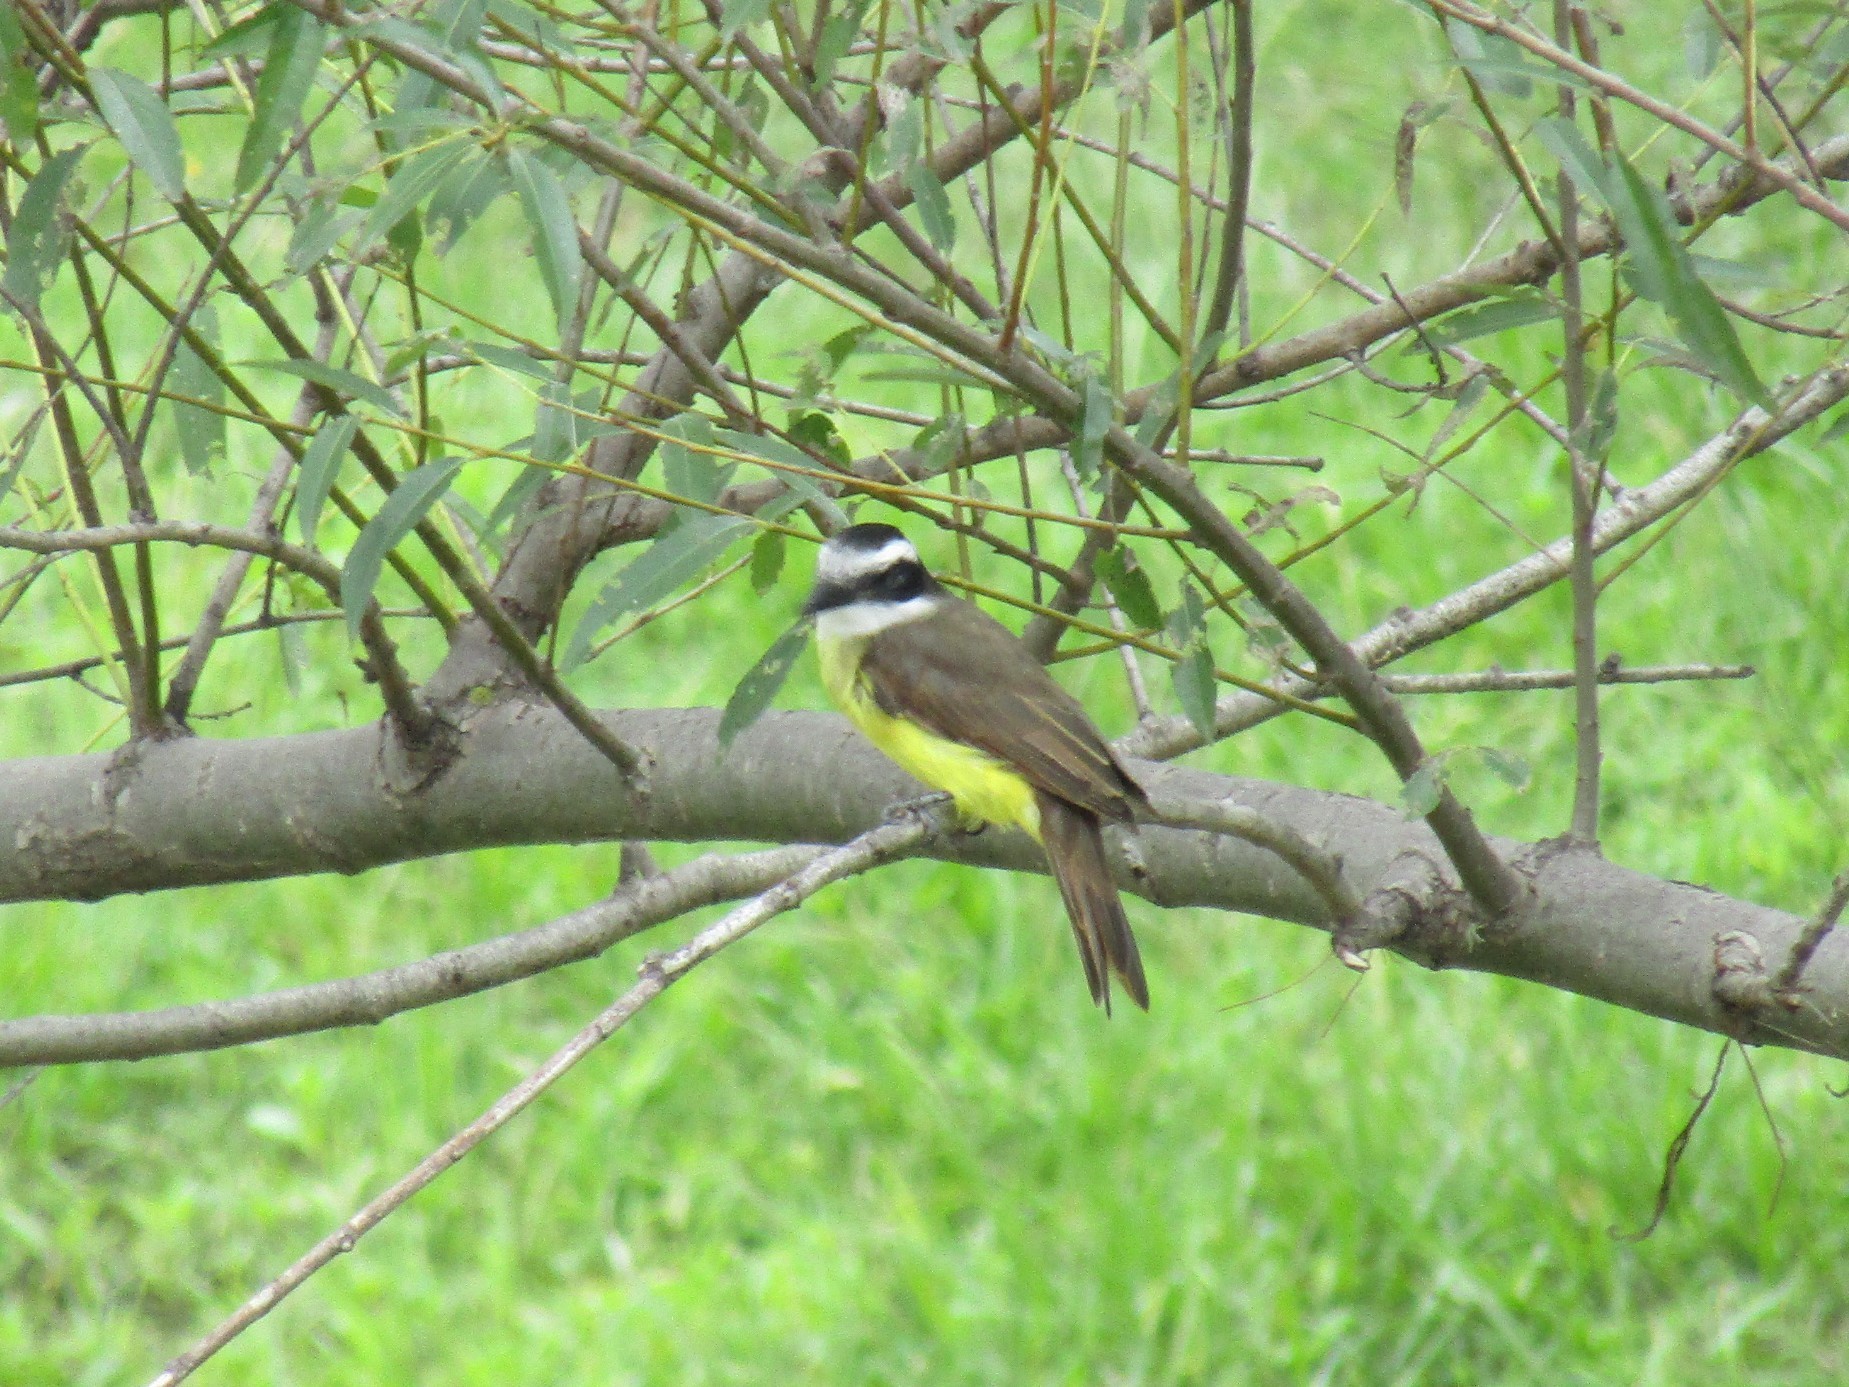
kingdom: Animalia
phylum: Chordata
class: Aves
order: Passeriformes
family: Tyrannidae
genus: Pitangus
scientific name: Pitangus sulphuratus
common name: Great kiskadee
